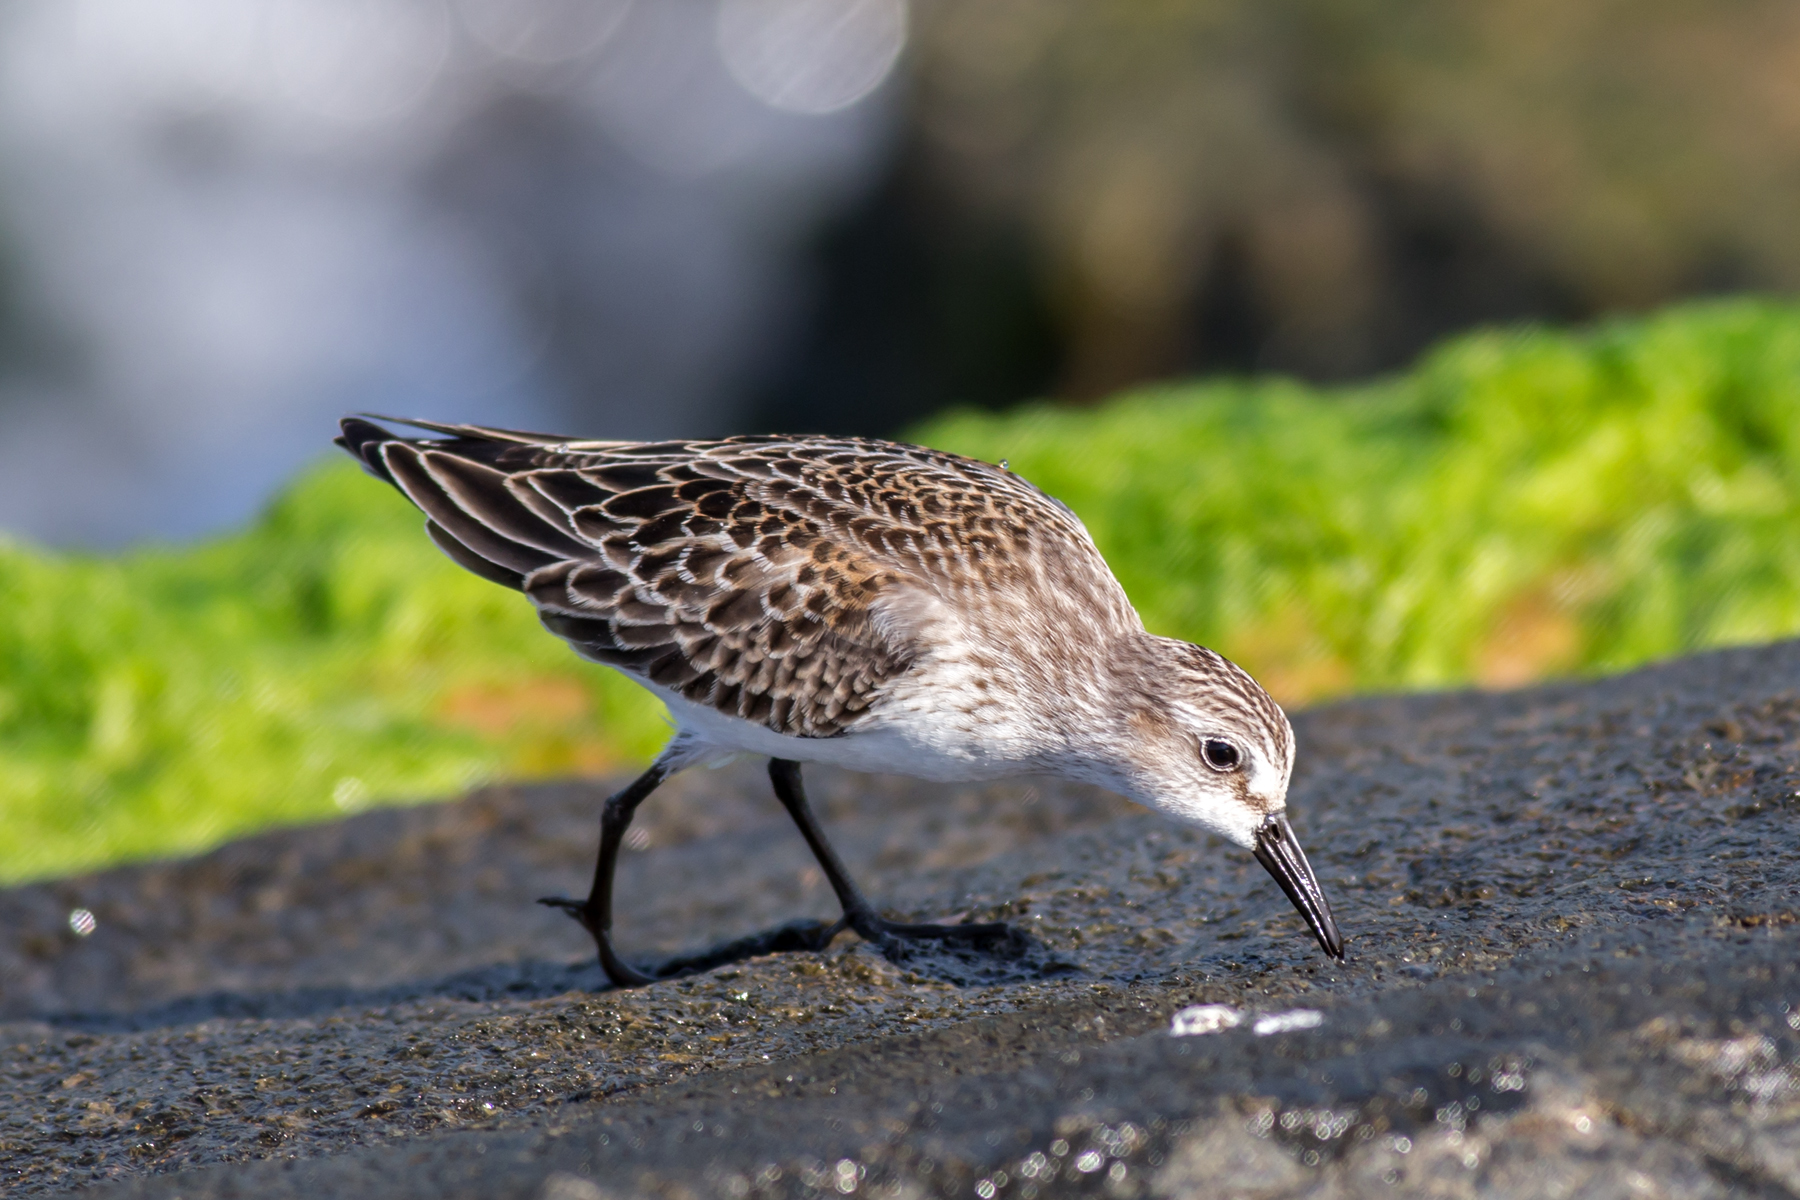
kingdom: Animalia
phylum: Chordata
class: Aves
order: Charadriiformes
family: Scolopacidae
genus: Calidris
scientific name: Calidris pusilla
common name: Semipalmated sandpiper
